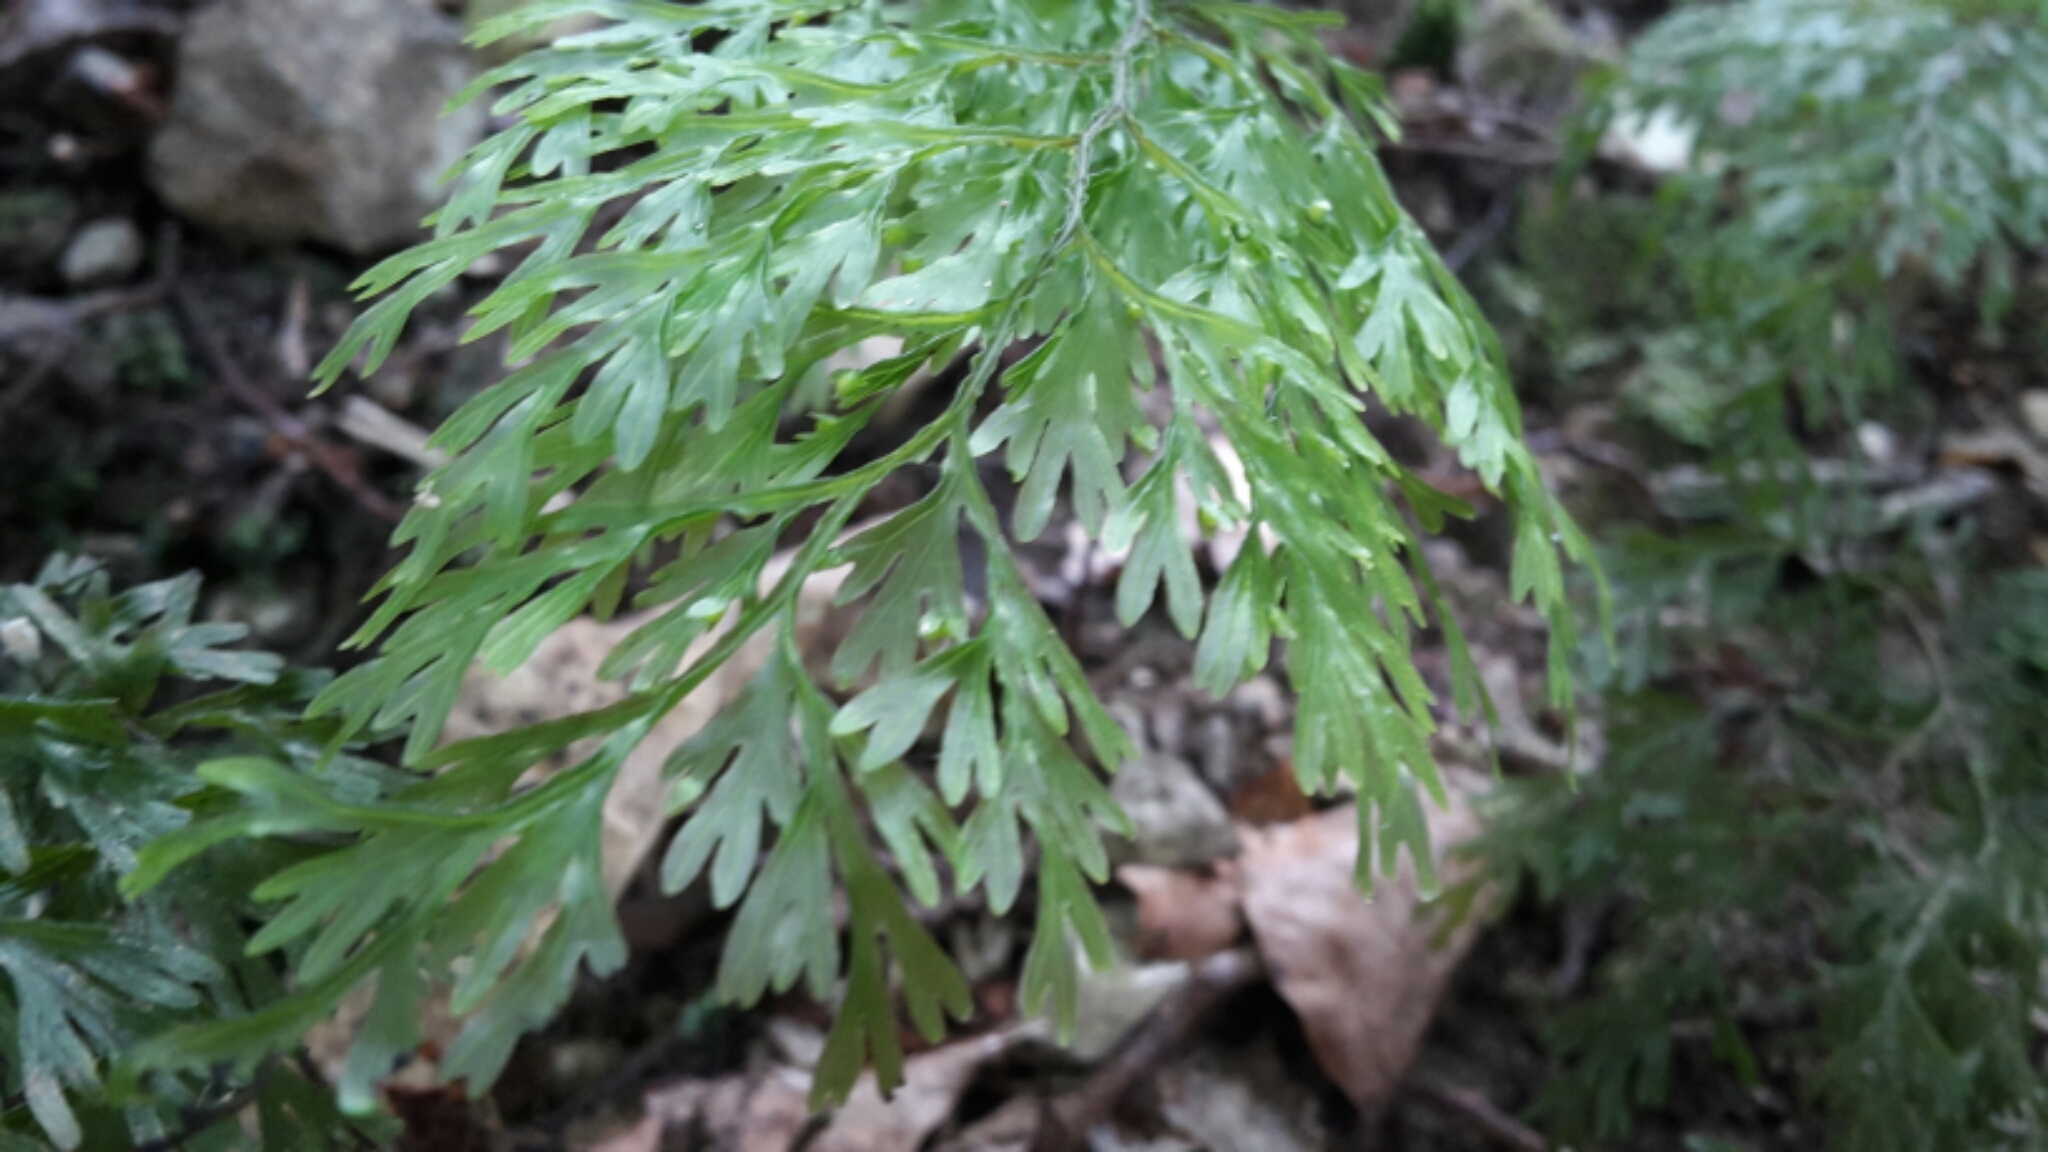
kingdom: Plantae
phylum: Tracheophyta
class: Polypodiopsida
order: Hymenophyllales
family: Hymenophyllaceae
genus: Hymenophyllum
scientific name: Hymenophyllum demissum
